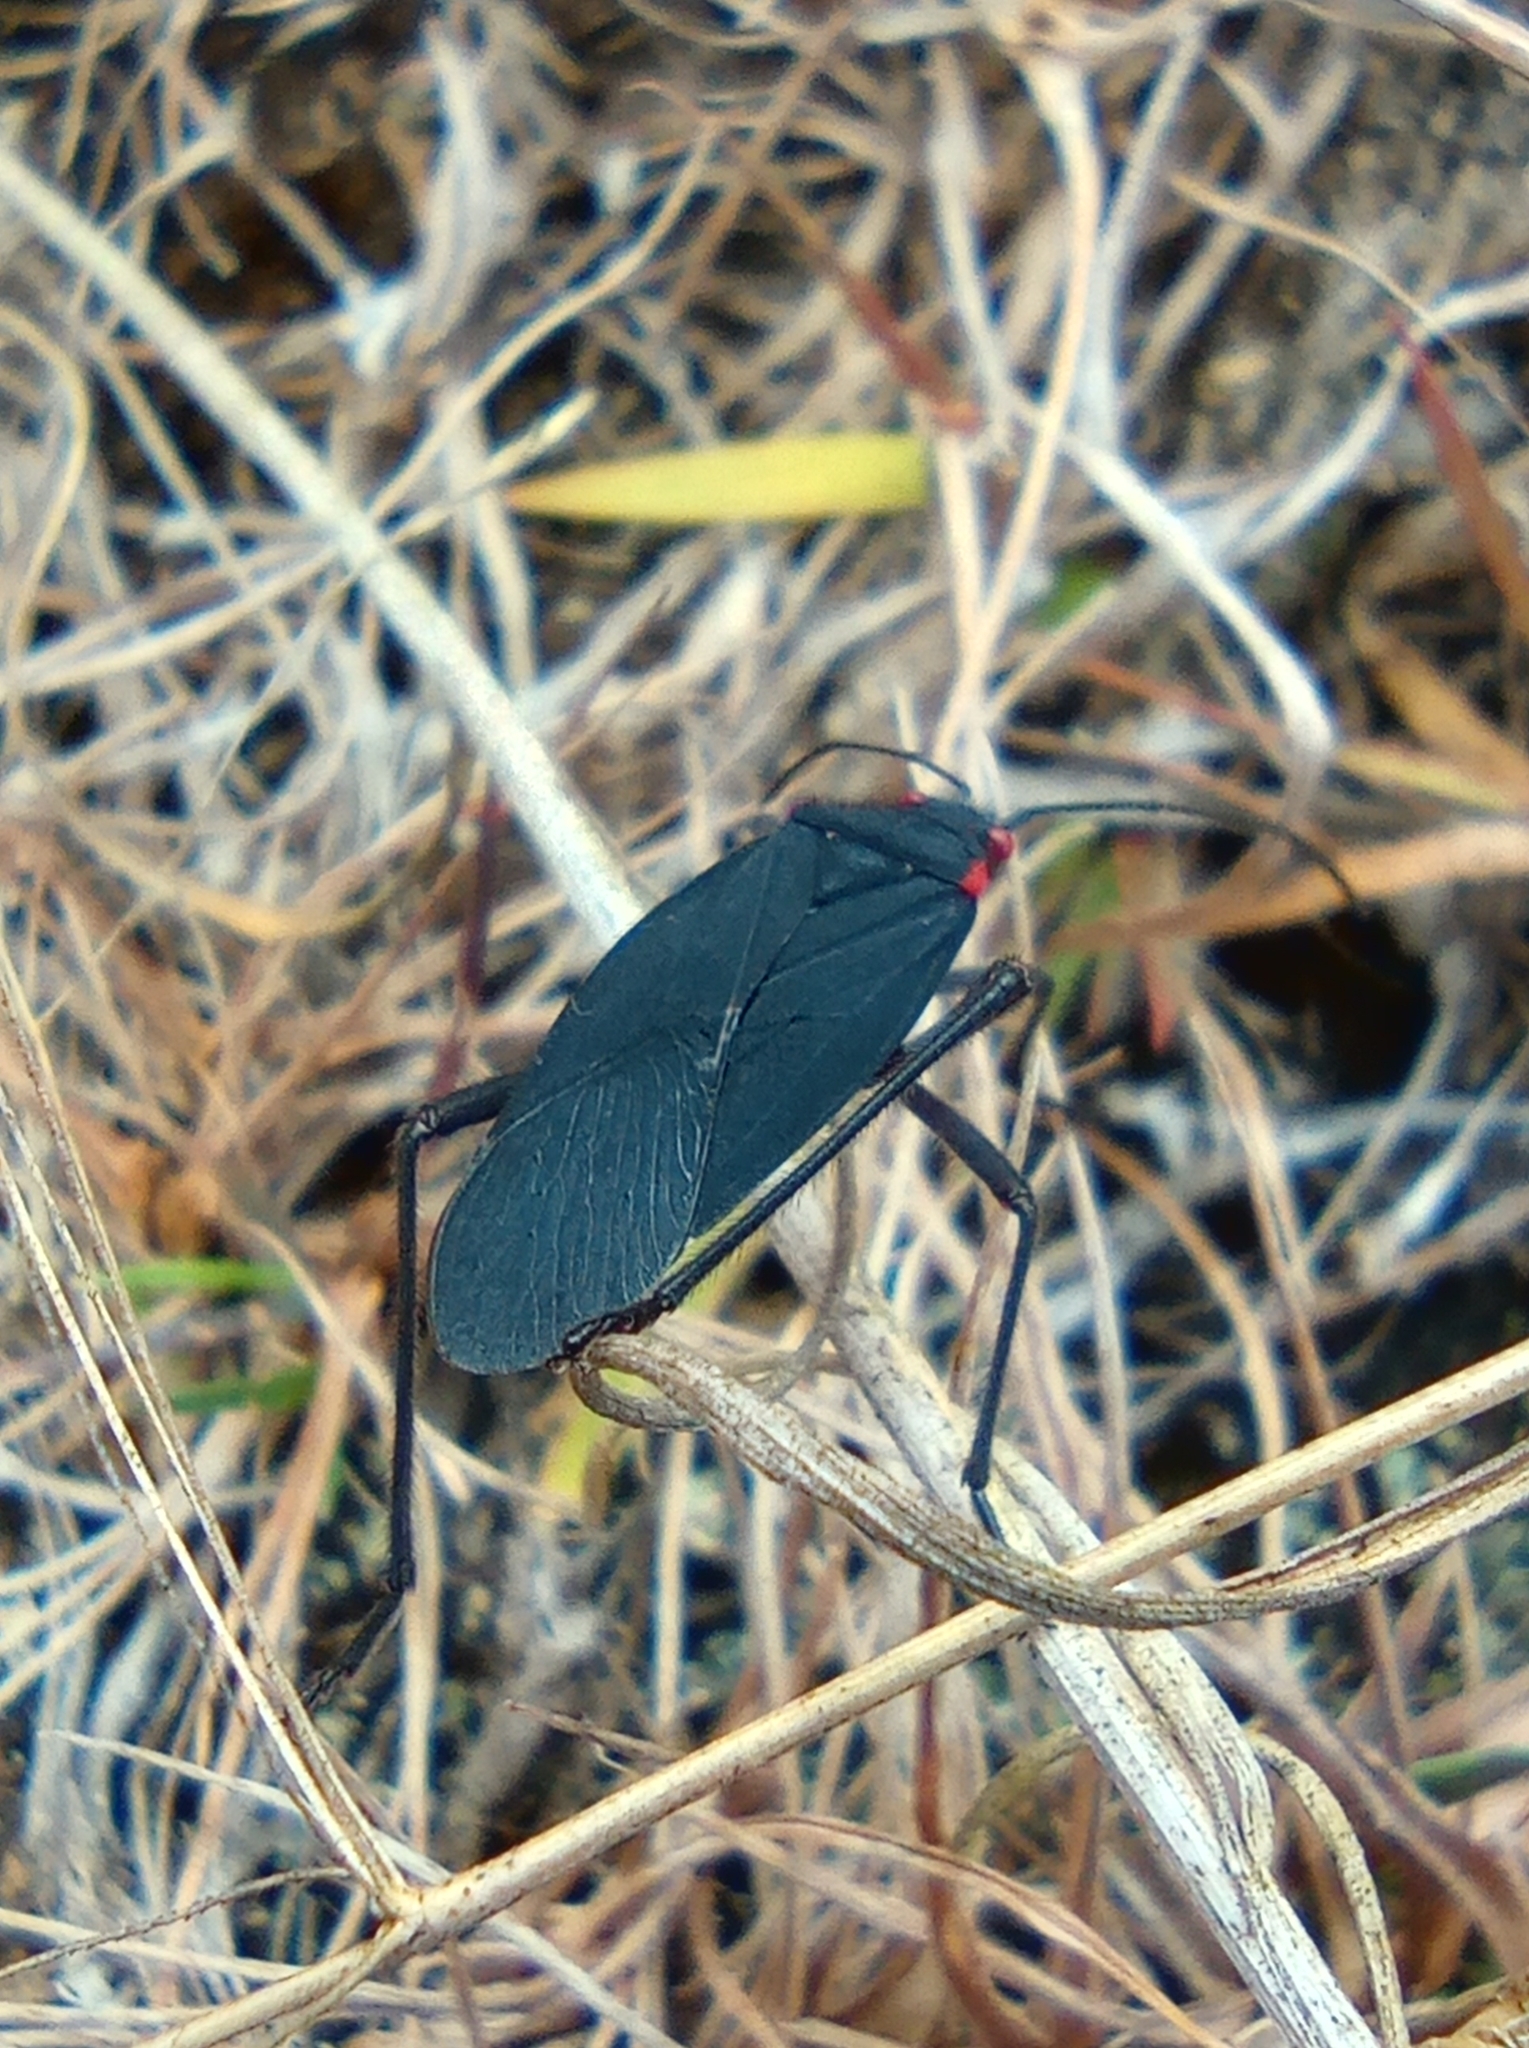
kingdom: Animalia
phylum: Arthropoda
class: Insecta
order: Hemiptera
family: Rhopalidae
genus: Jadera
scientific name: Jadera haematoloma
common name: Red-shouldered bug
